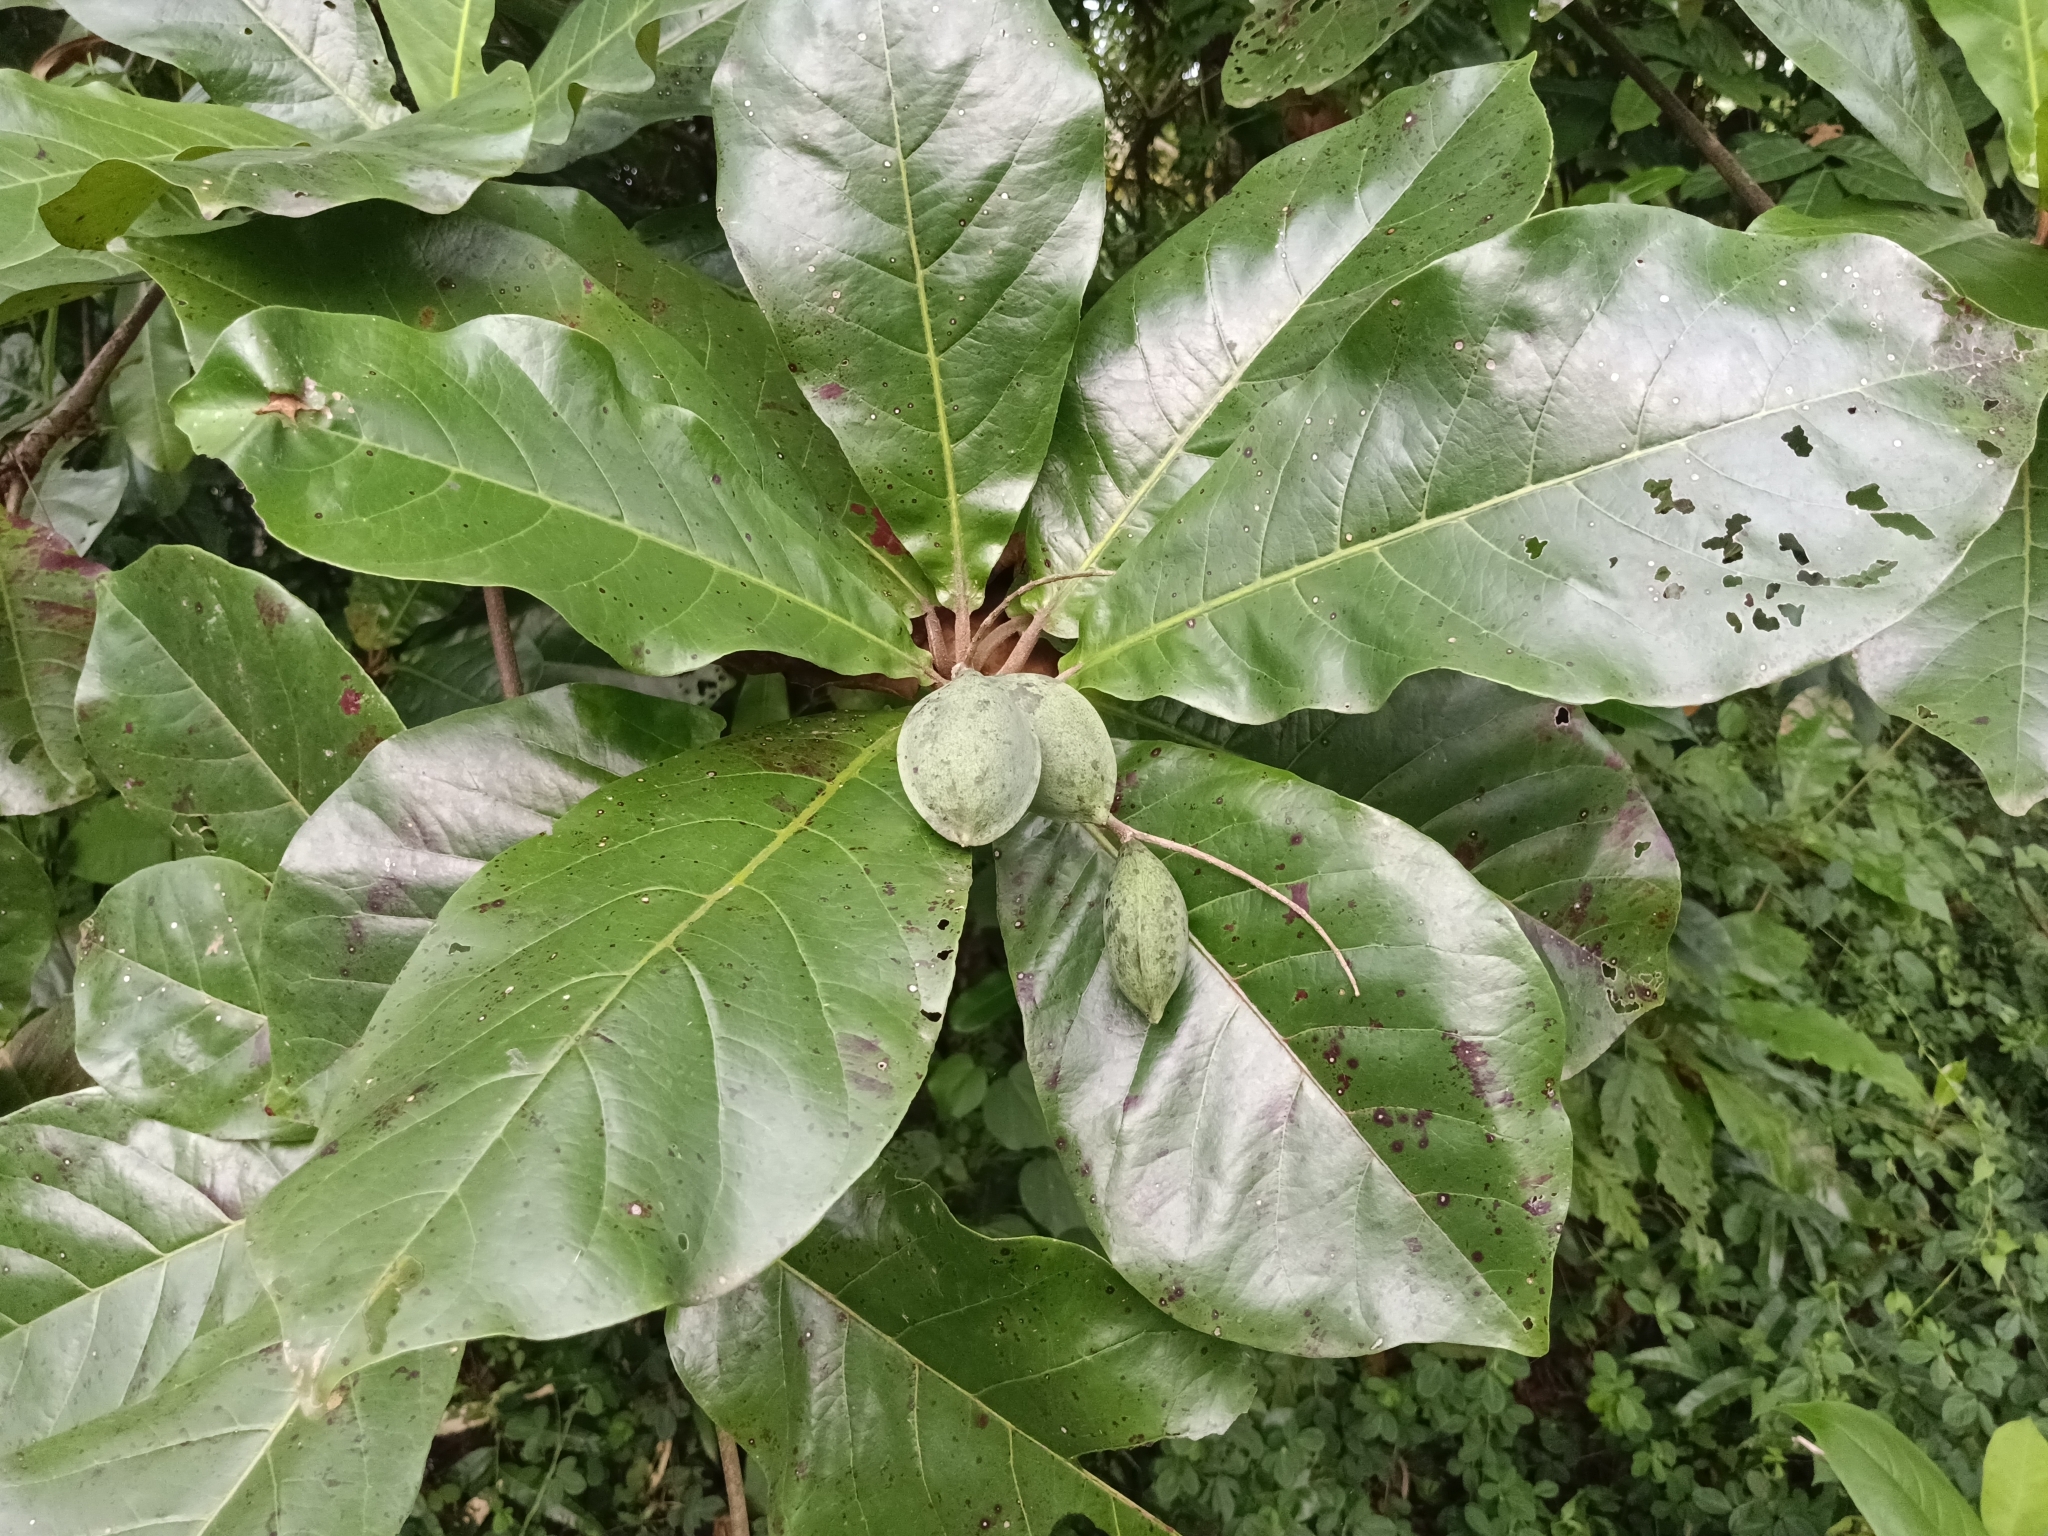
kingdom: Plantae
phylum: Tracheophyta
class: Magnoliopsida
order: Myrtales
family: Combretaceae
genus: Terminalia
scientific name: Terminalia catappa
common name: Tropical almond
